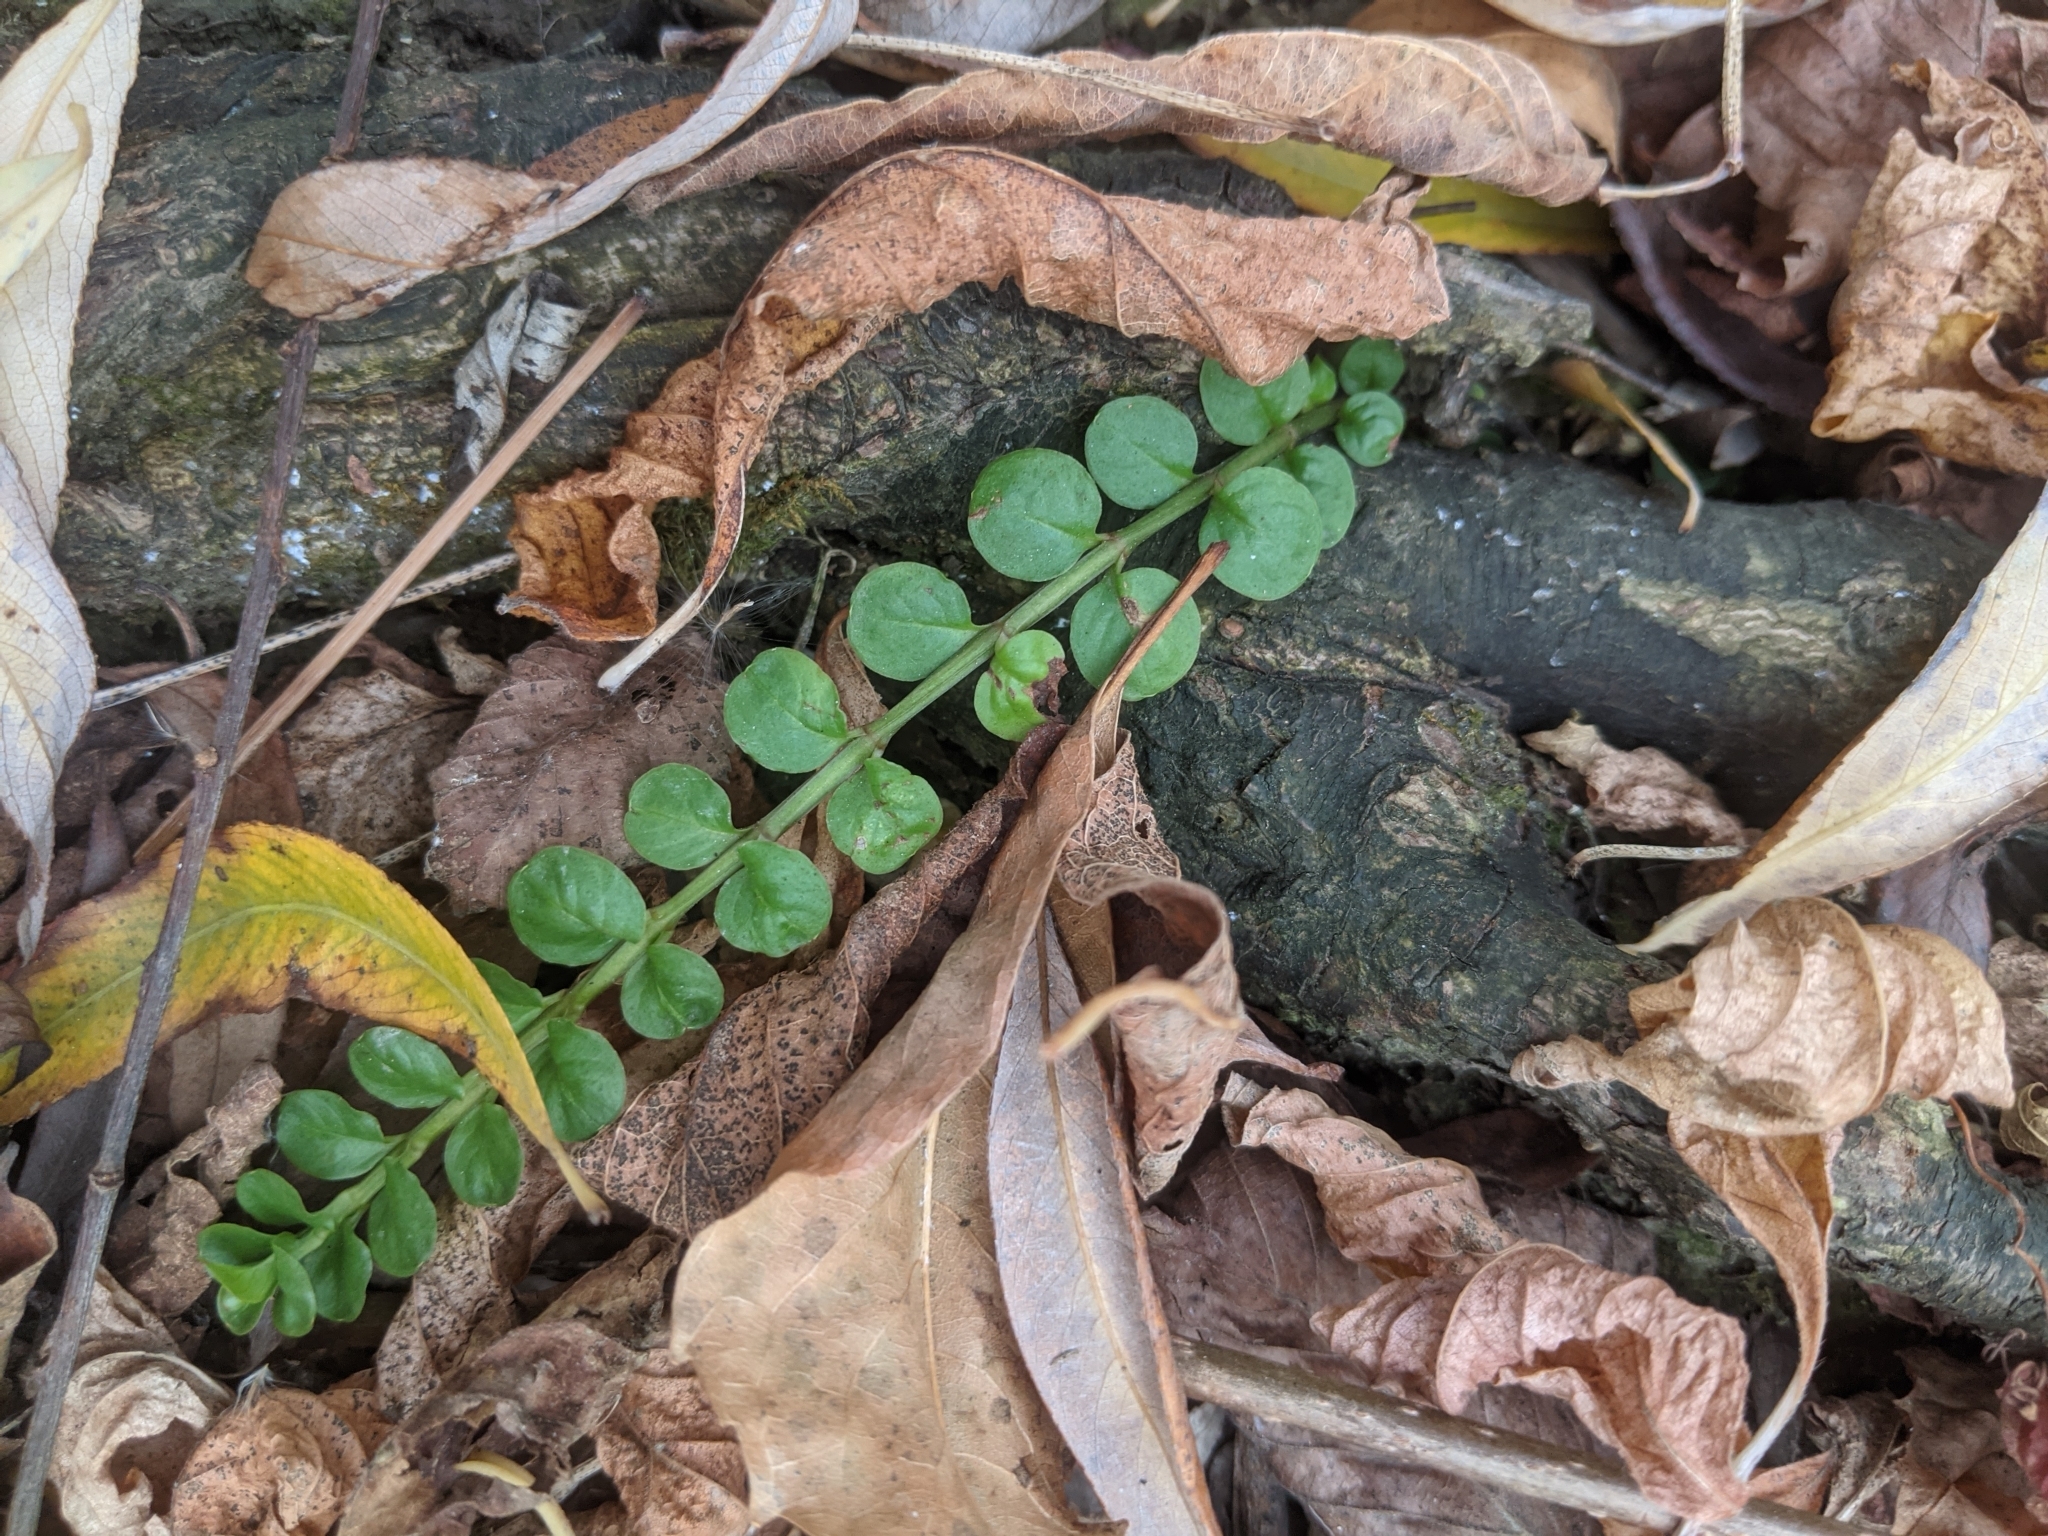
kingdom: Plantae
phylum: Tracheophyta
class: Magnoliopsida
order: Ericales
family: Primulaceae
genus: Lysimachia
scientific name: Lysimachia nummularia
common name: Moneywort
